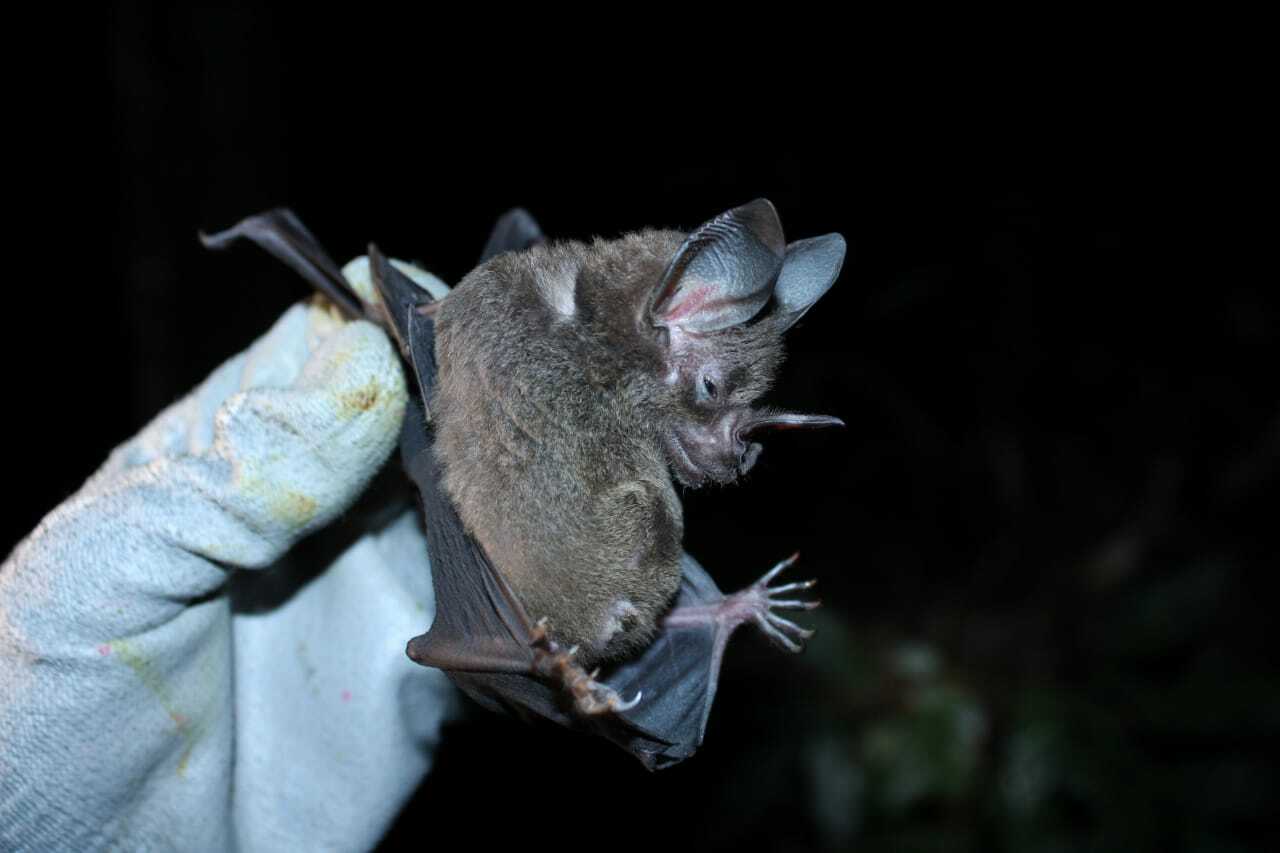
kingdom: Animalia
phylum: Chordata
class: Mammalia
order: Chiroptera
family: Phyllostomidae
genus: Phyllostomus
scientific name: Phyllostomus elongatus
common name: Lesser spear-nosed bat
